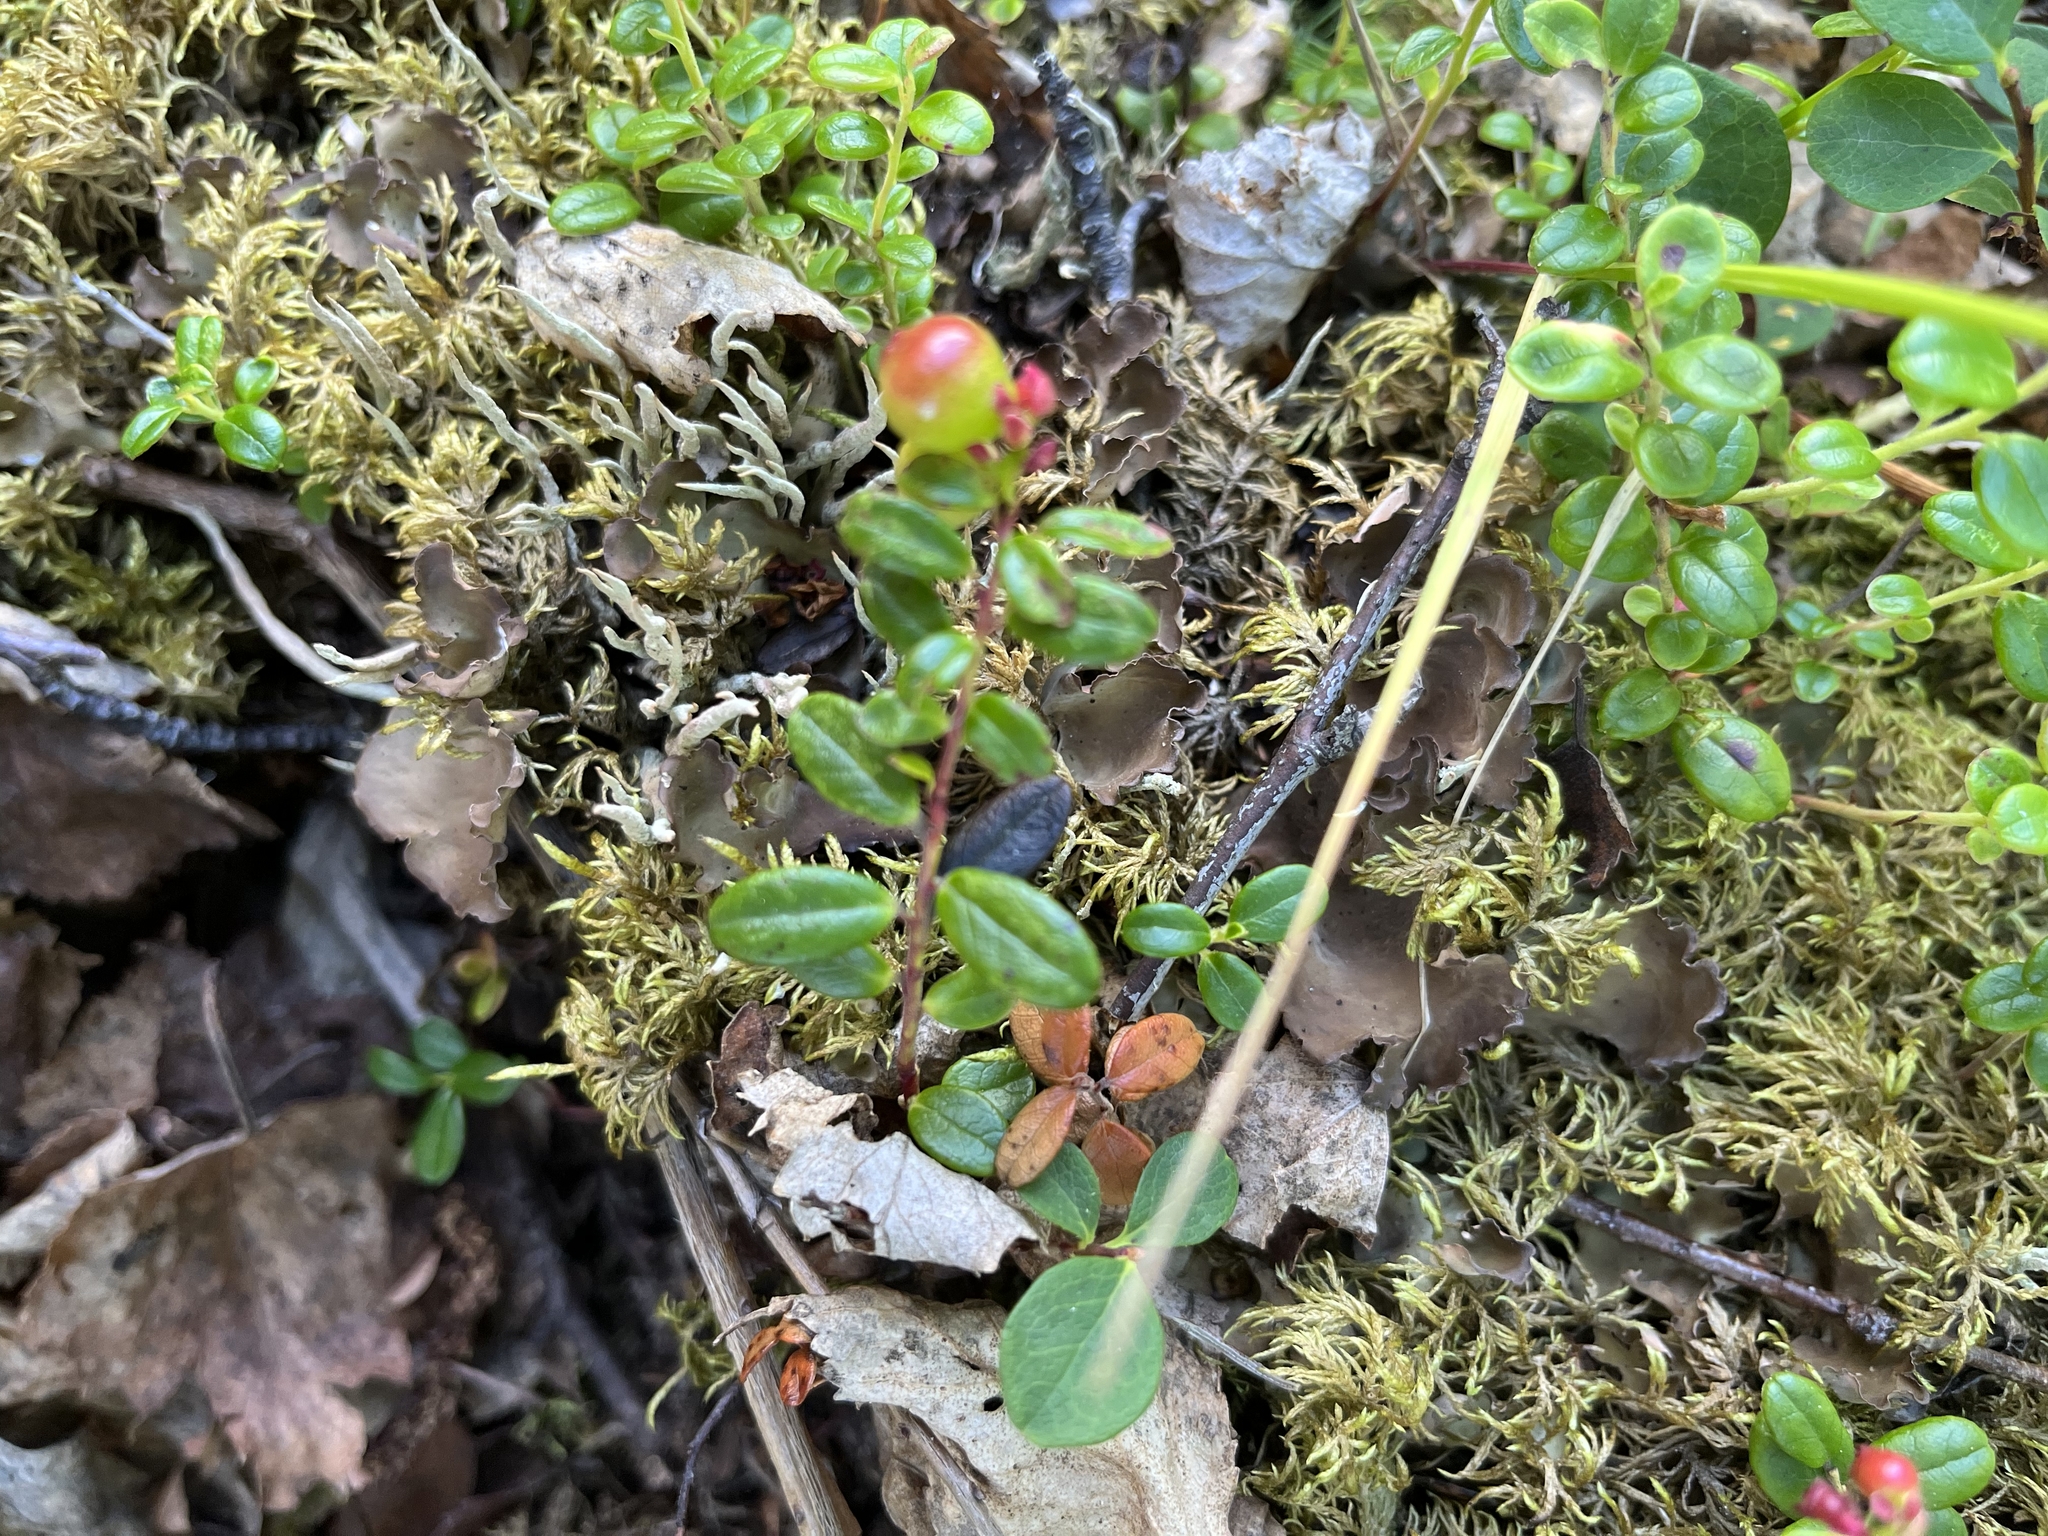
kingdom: Plantae
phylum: Tracheophyta
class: Magnoliopsida
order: Ericales
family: Ericaceae
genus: Vaccinium
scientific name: Vaccinium vitis-idaea
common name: Cowberry
